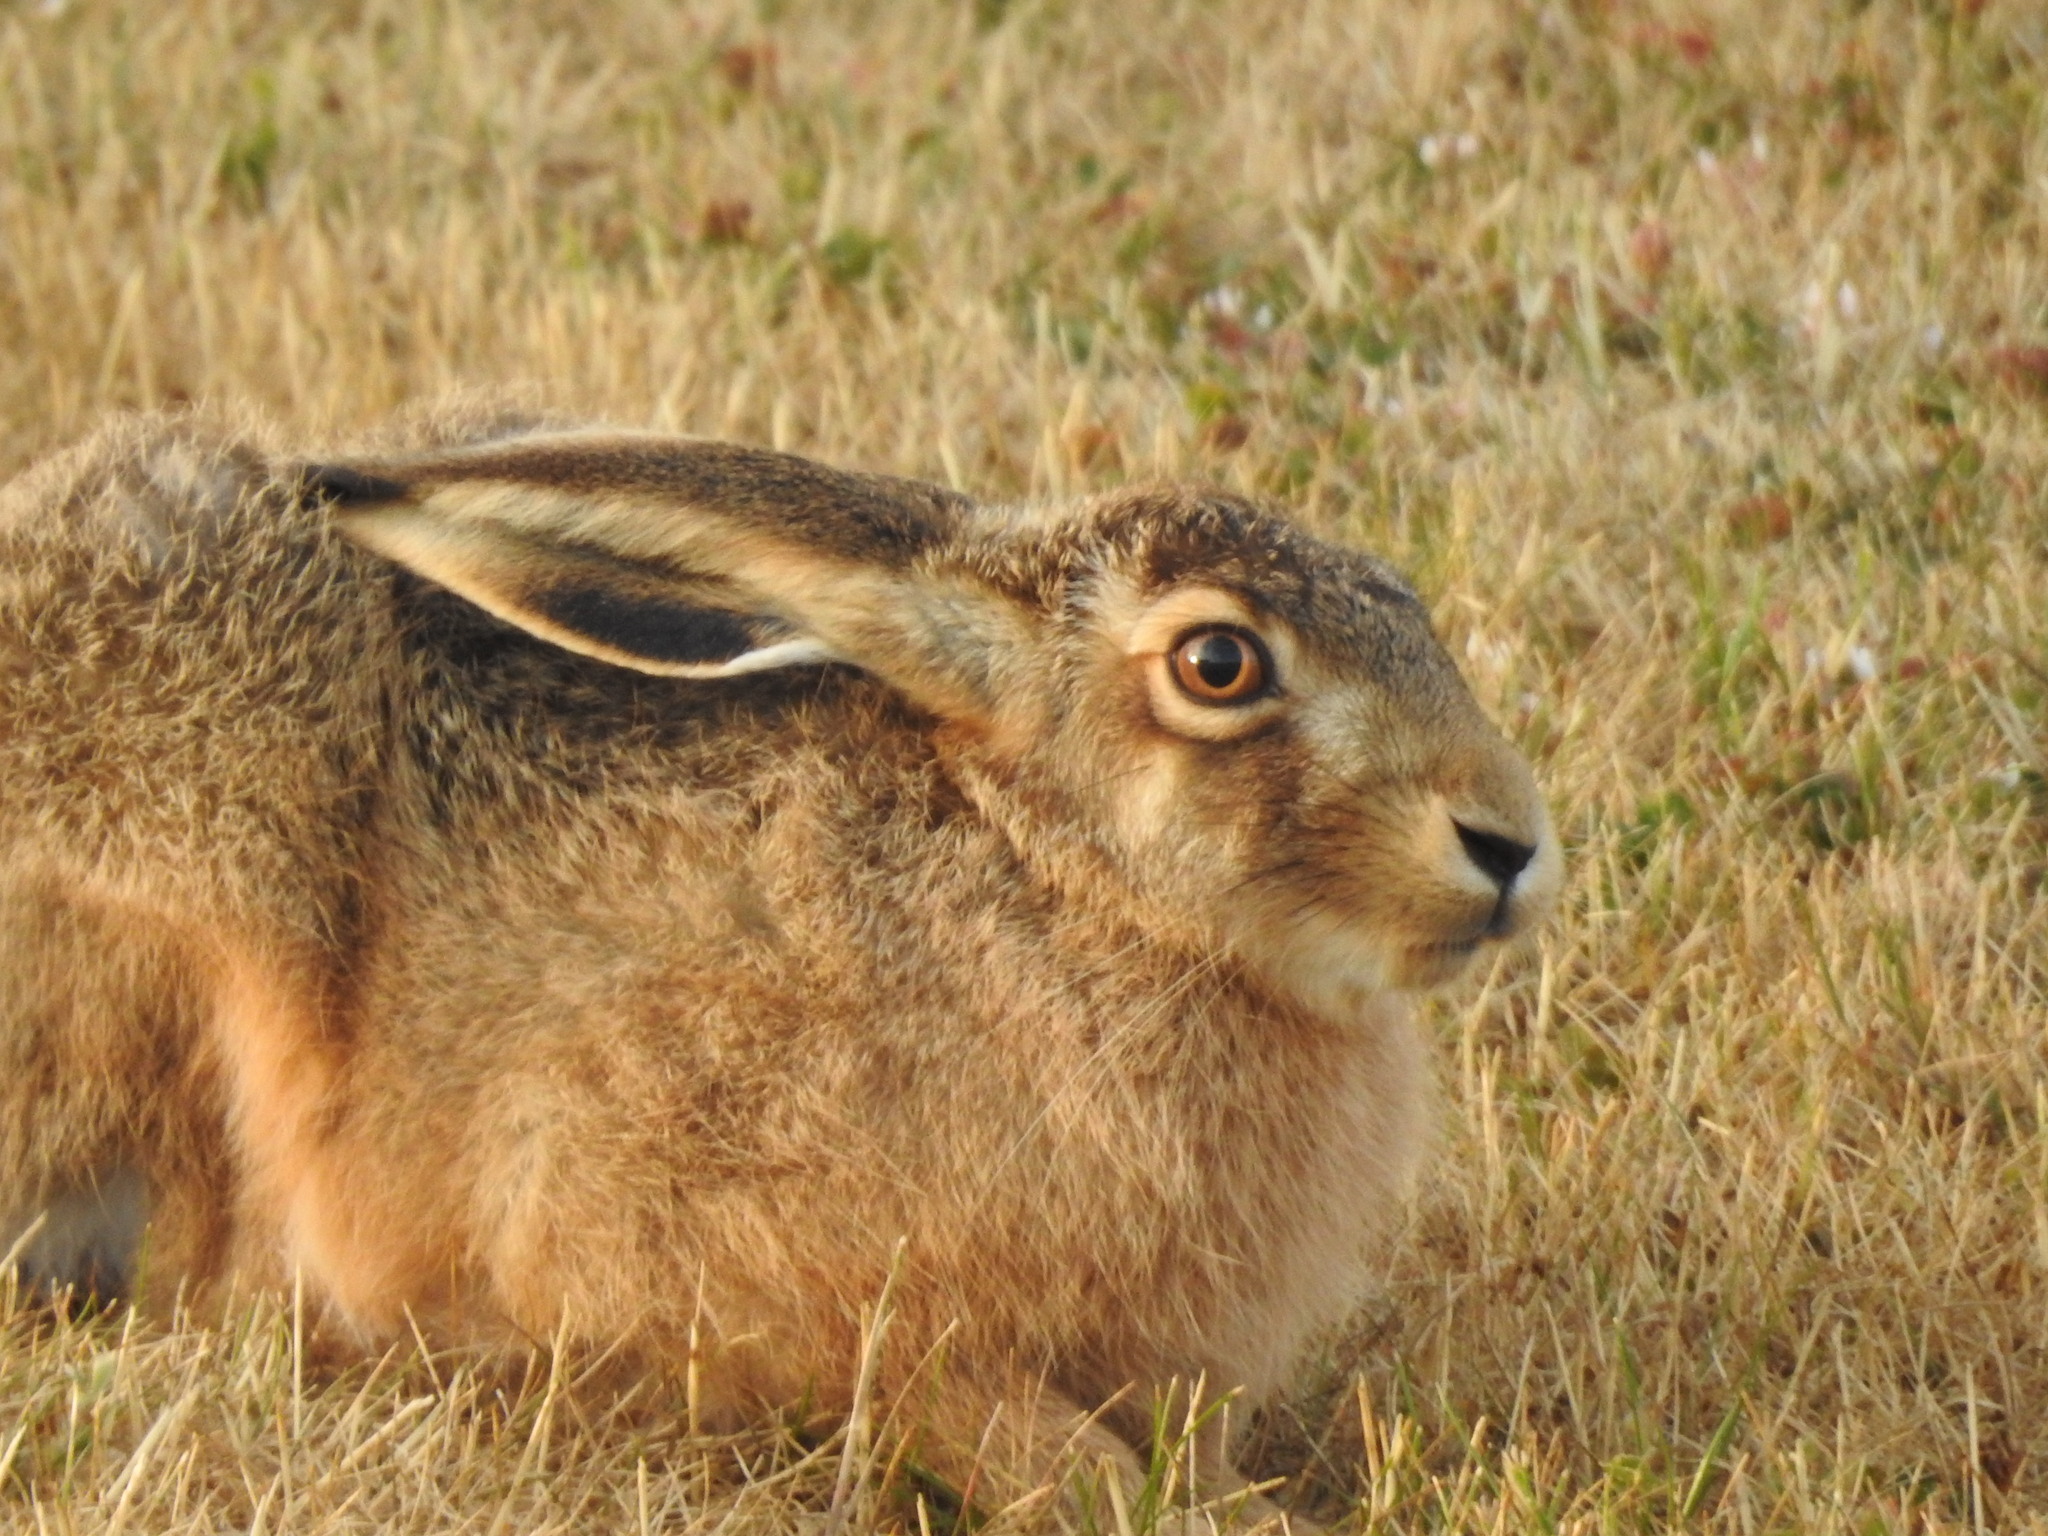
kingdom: Animalia
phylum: Chordata
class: Mammalia
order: Lagomorpha
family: Leporidae
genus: Lepus
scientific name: Lepus europaeus
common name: European hare
